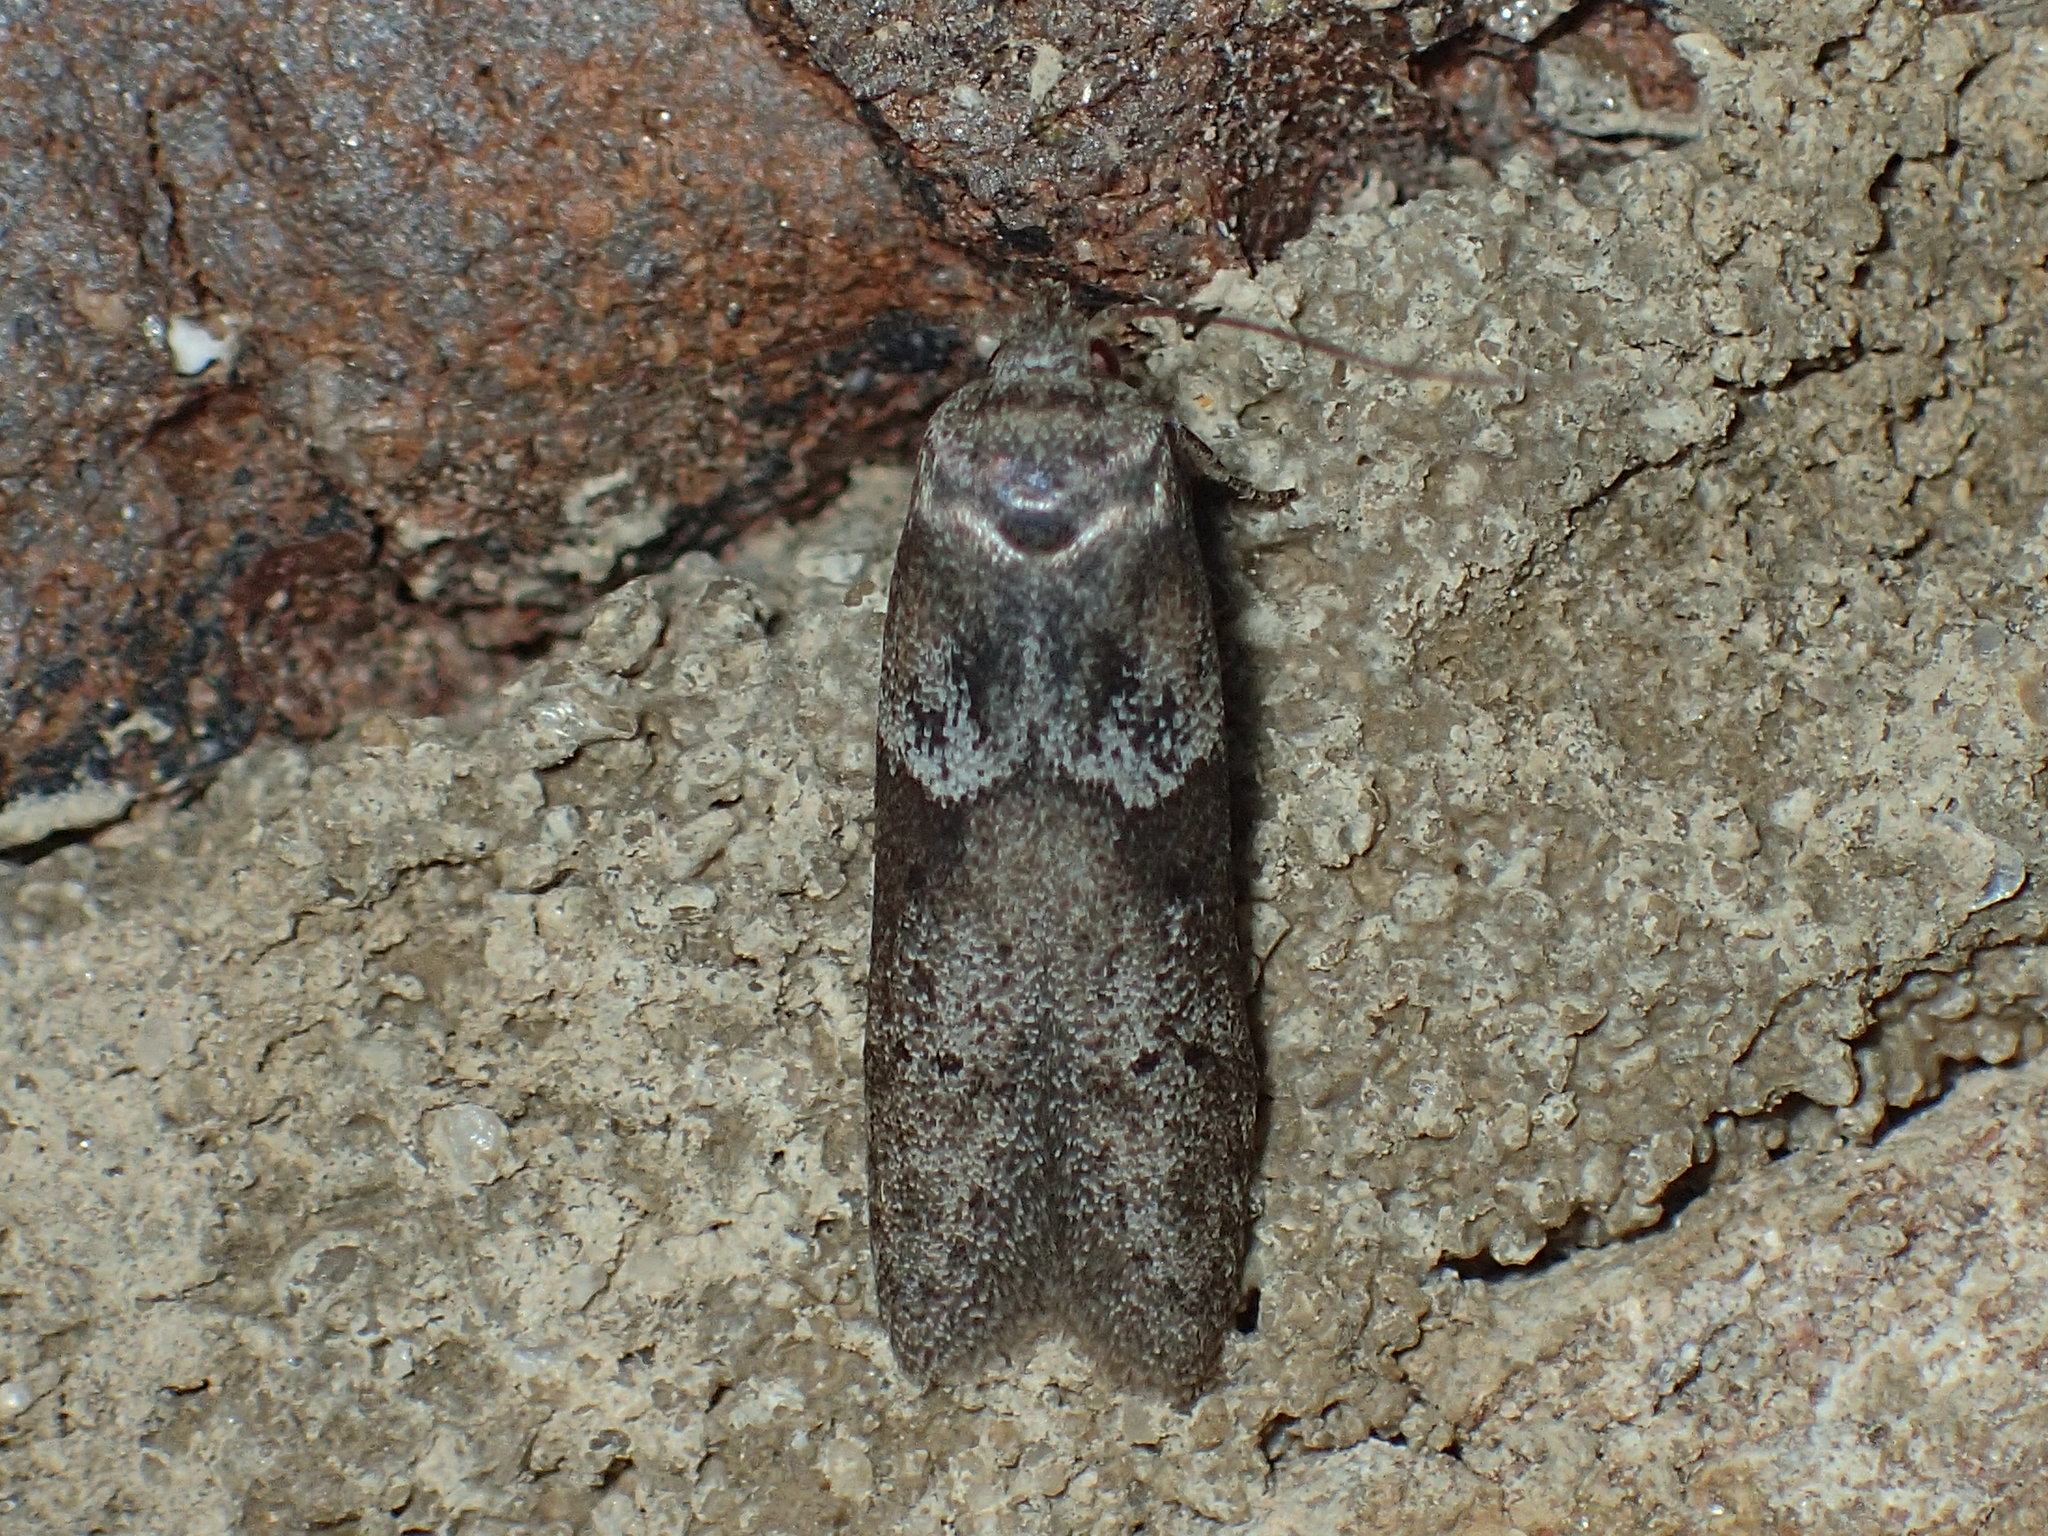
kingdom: Animalia
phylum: Arthropoda
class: Insecta
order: Lepidoptera
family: Blastobasidae
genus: Blastobasis
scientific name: Blastobasis glandulella
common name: Acorn moth
